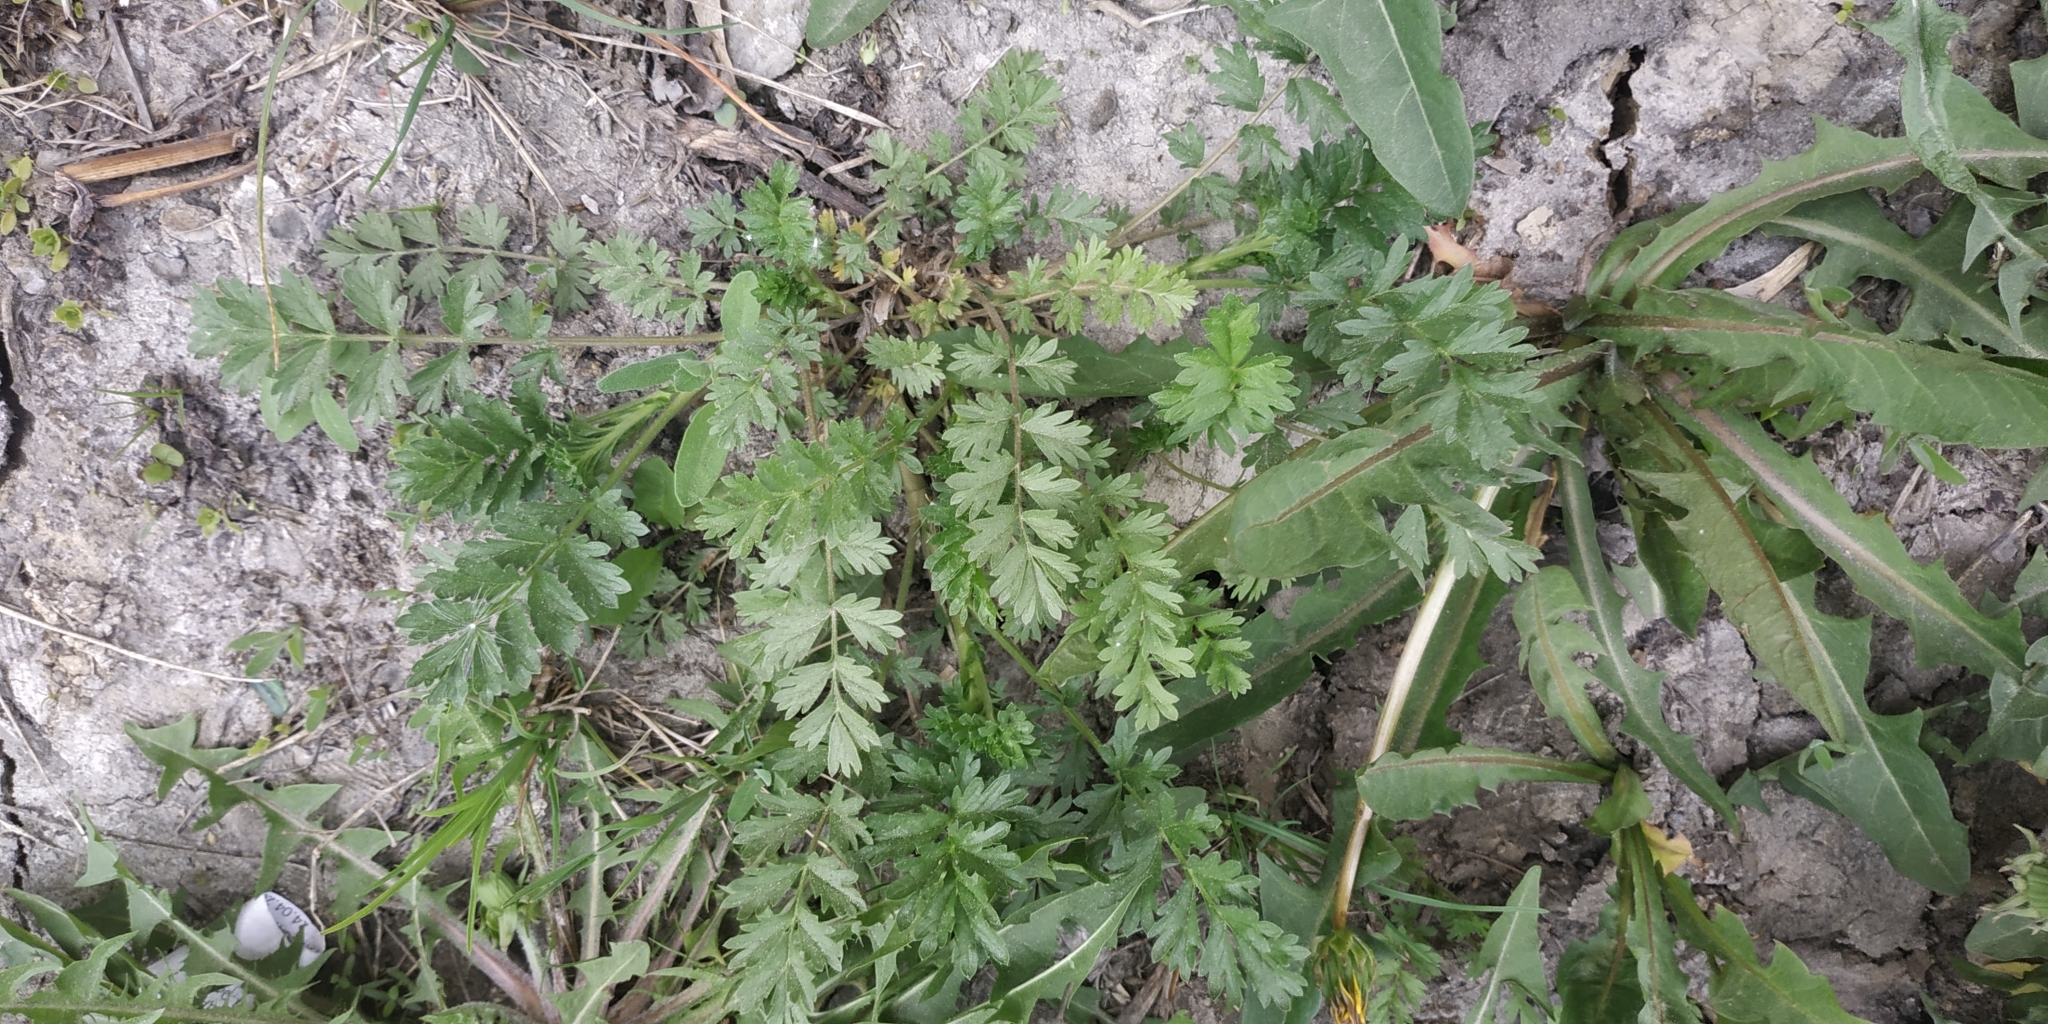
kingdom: Plantae
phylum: Tracheophyta
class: Magnoliopsida
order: Rosales
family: Rosaceae
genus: Potentilla
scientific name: Potentilla supina
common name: Prostrate cinquefoil
